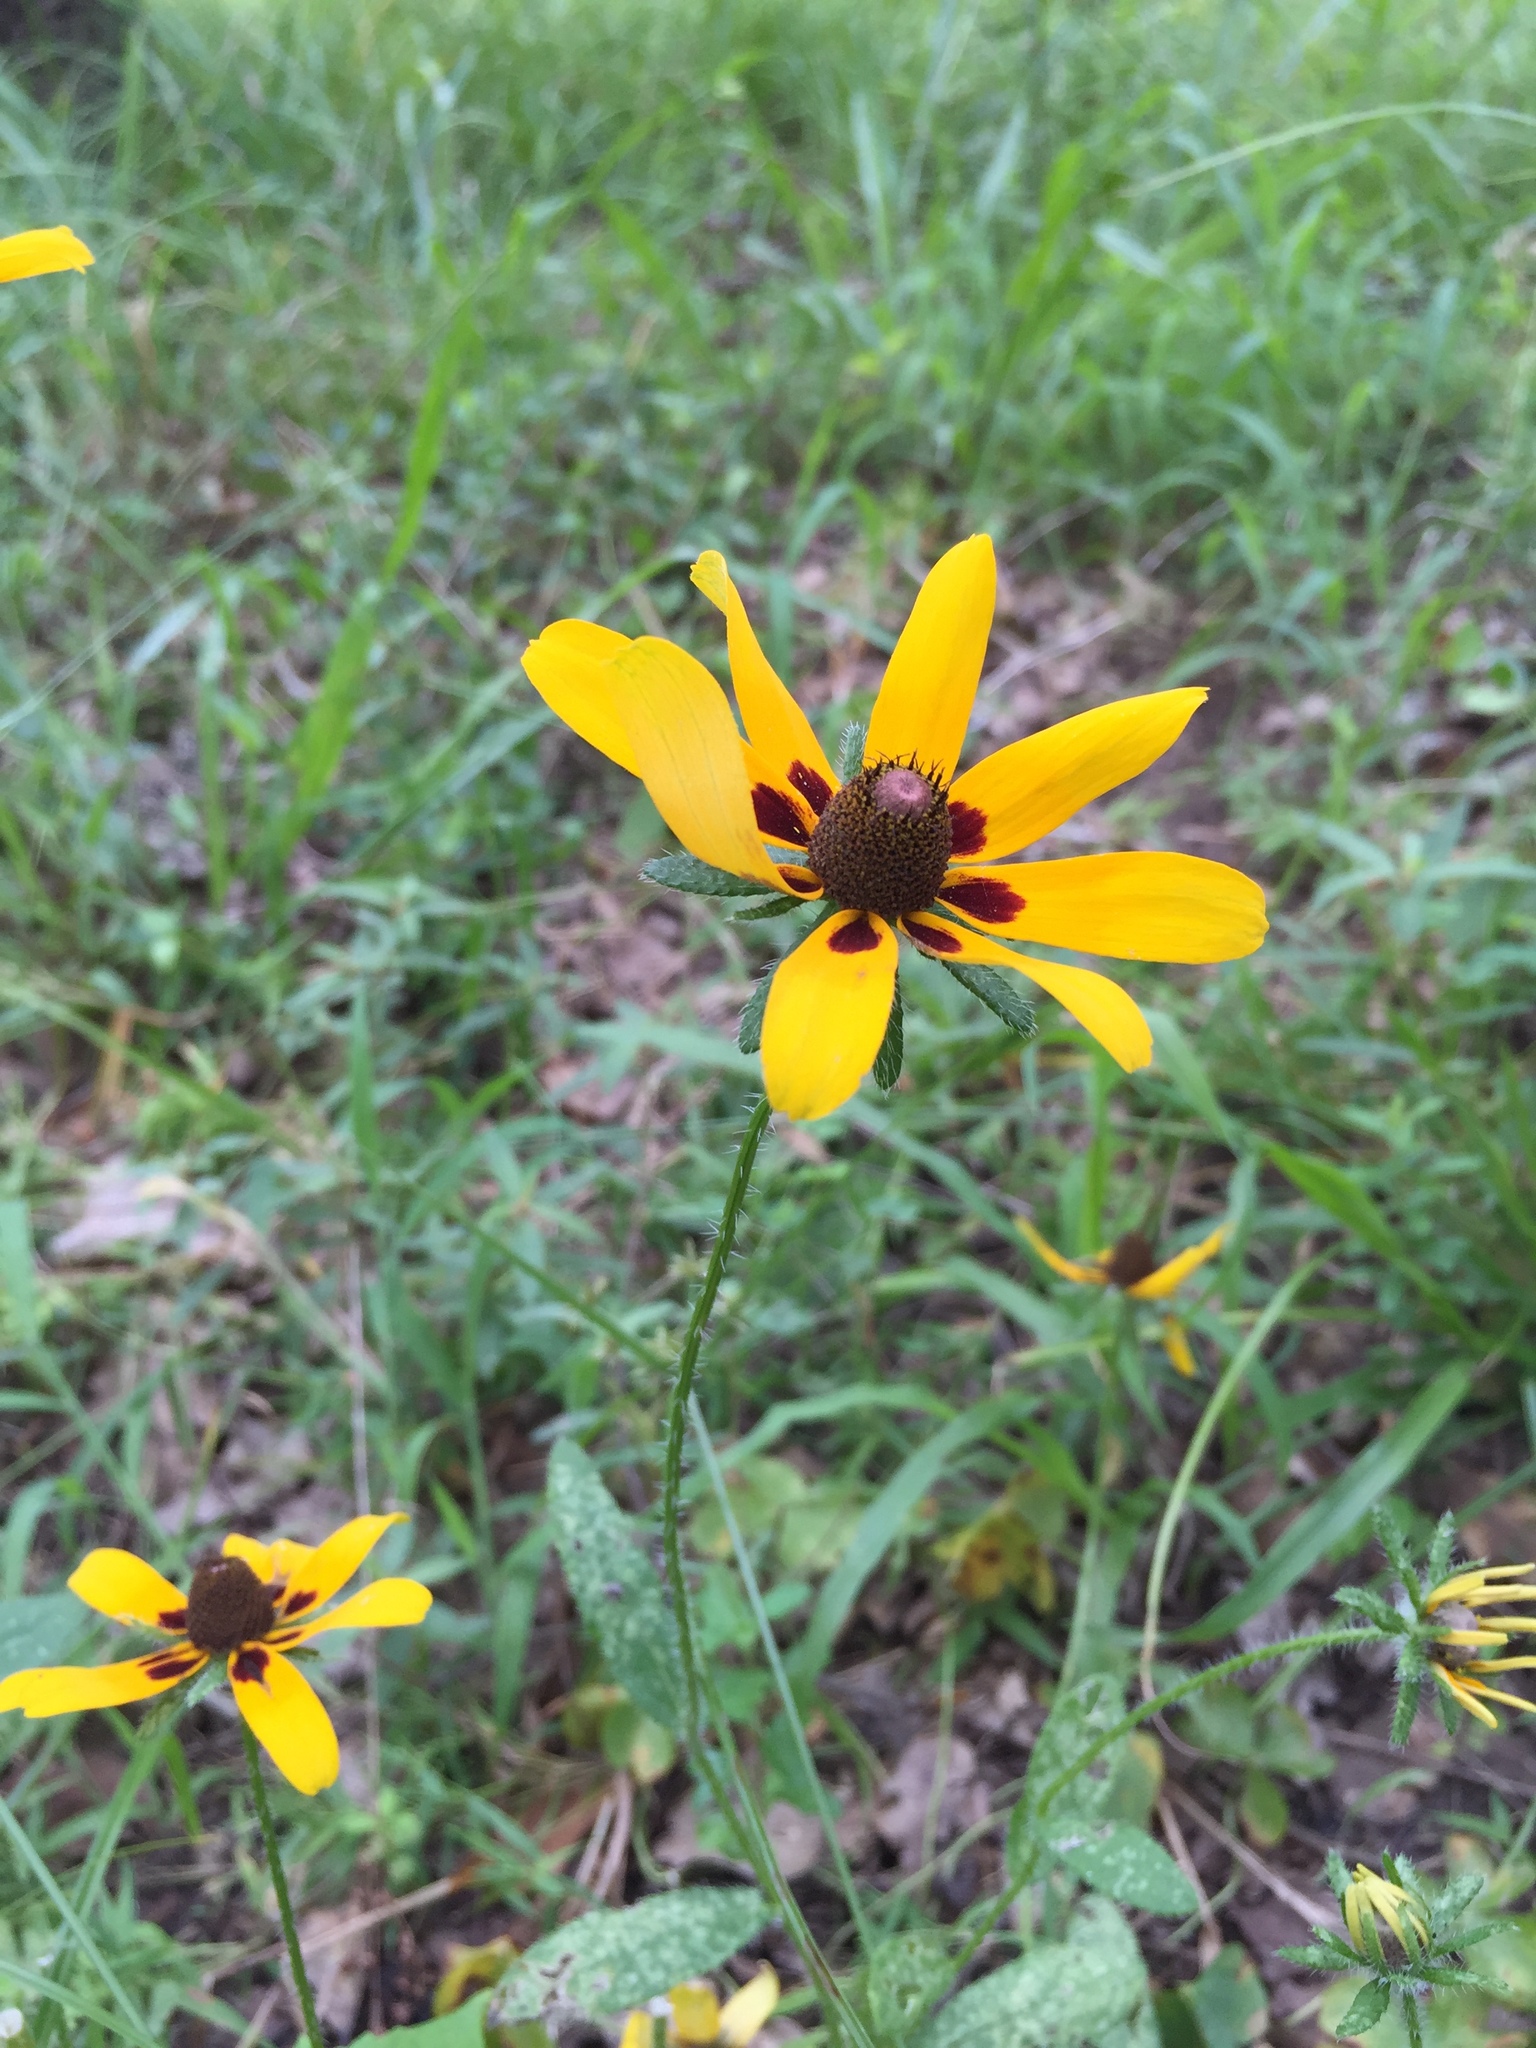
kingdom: Plantae
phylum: Tracheophyta
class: Magnoliopsida
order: Asterales
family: Asteraceae
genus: Rudbeckia
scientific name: Rudbeckia hirta
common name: Black-eyed-susan
